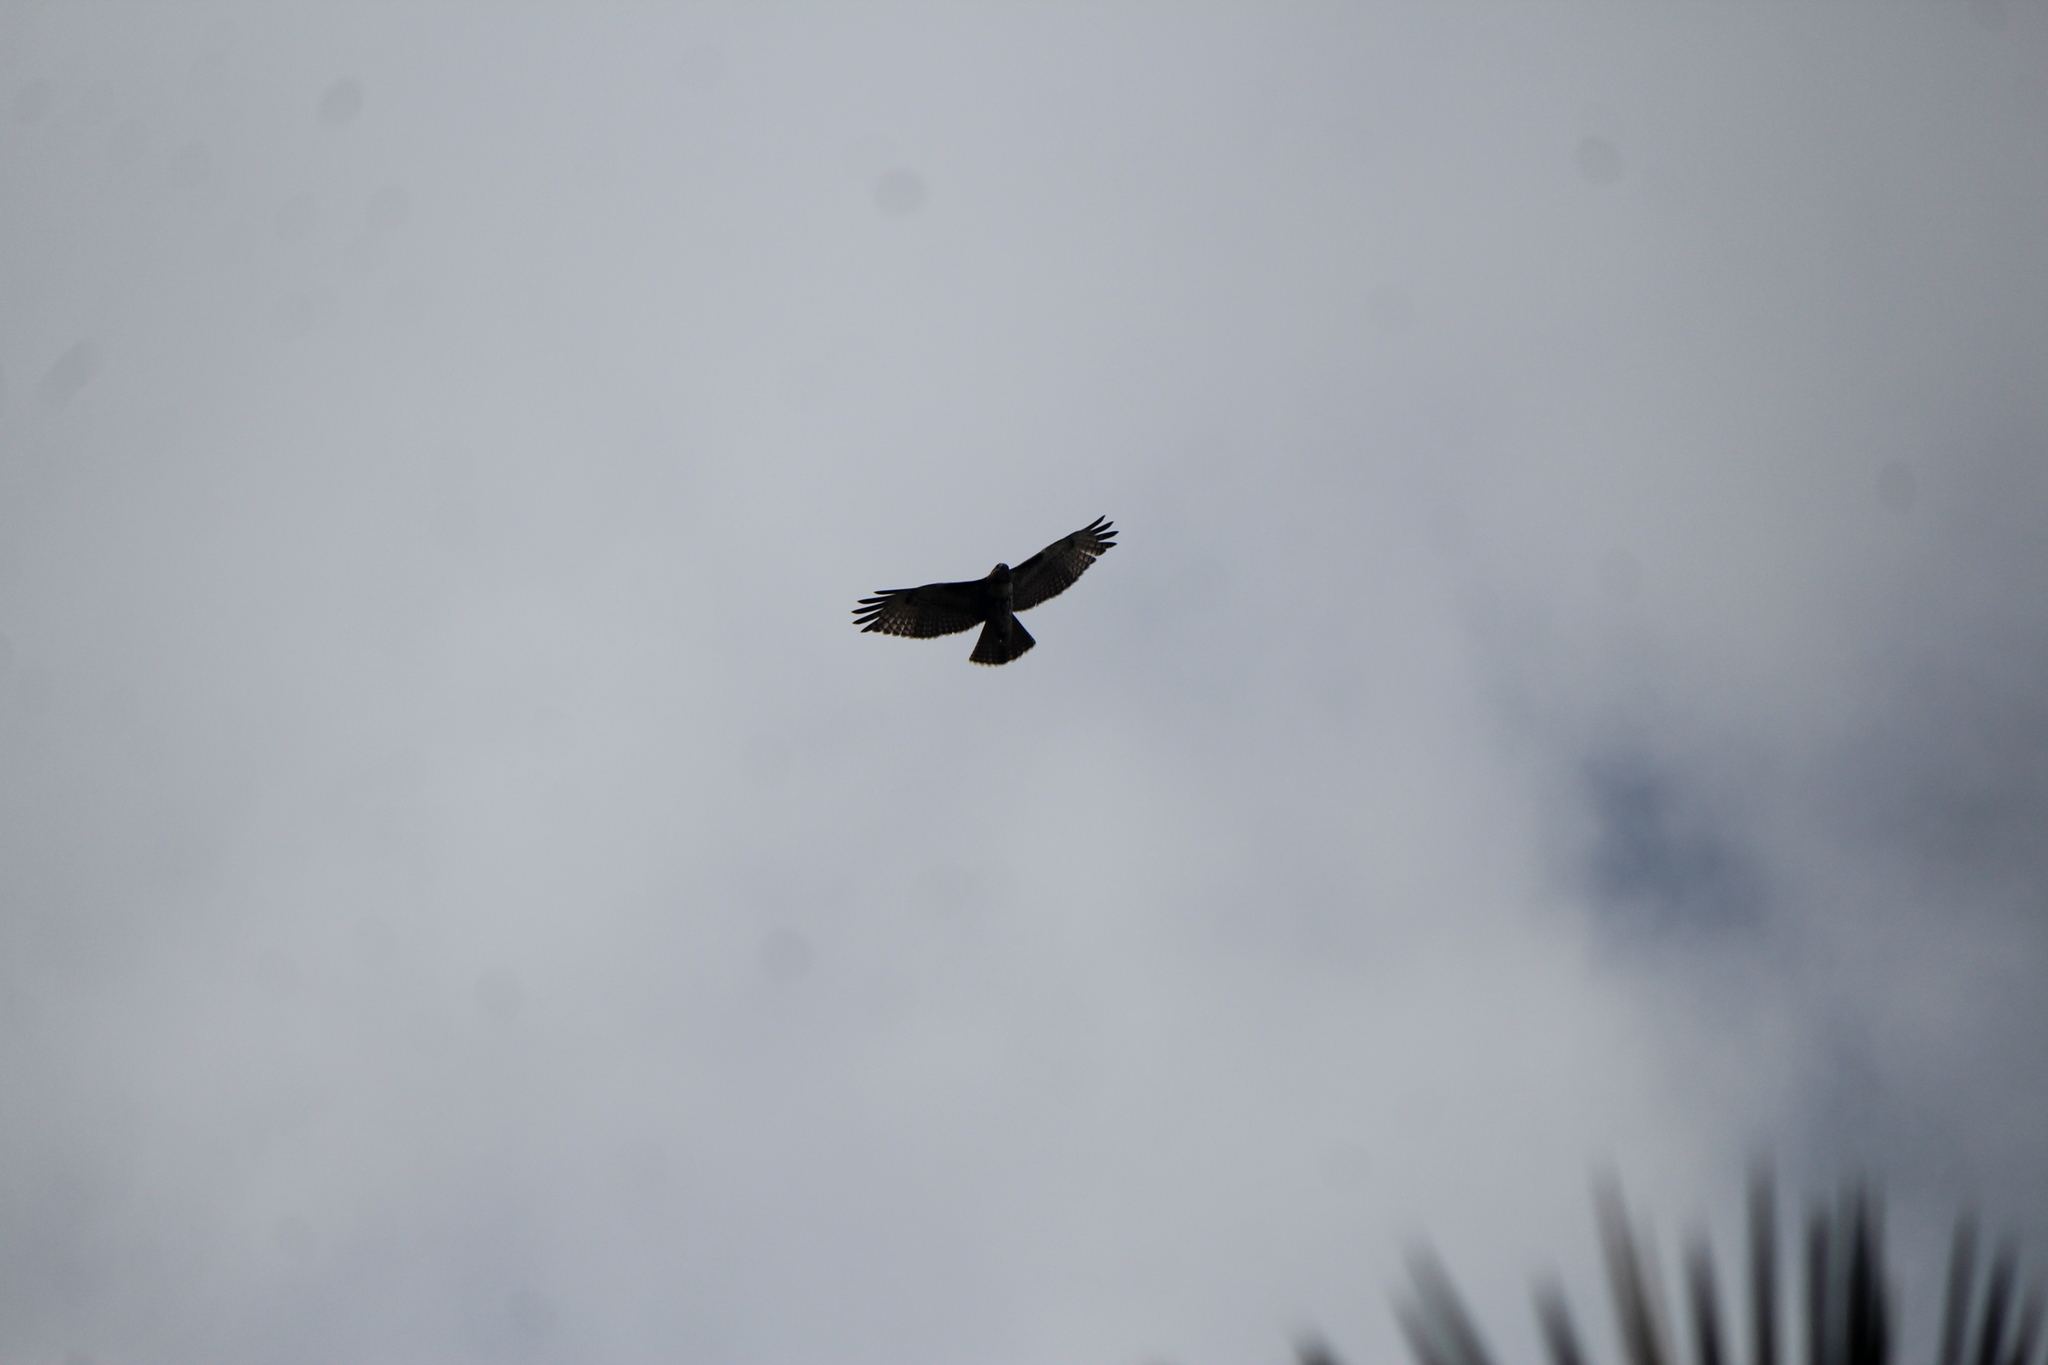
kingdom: Animalia
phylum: Chordata
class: Aves
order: Accipitriformes
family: Accipitridae
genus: Buteo
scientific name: Buteo jamaicensis
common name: Red-tailed hawk
